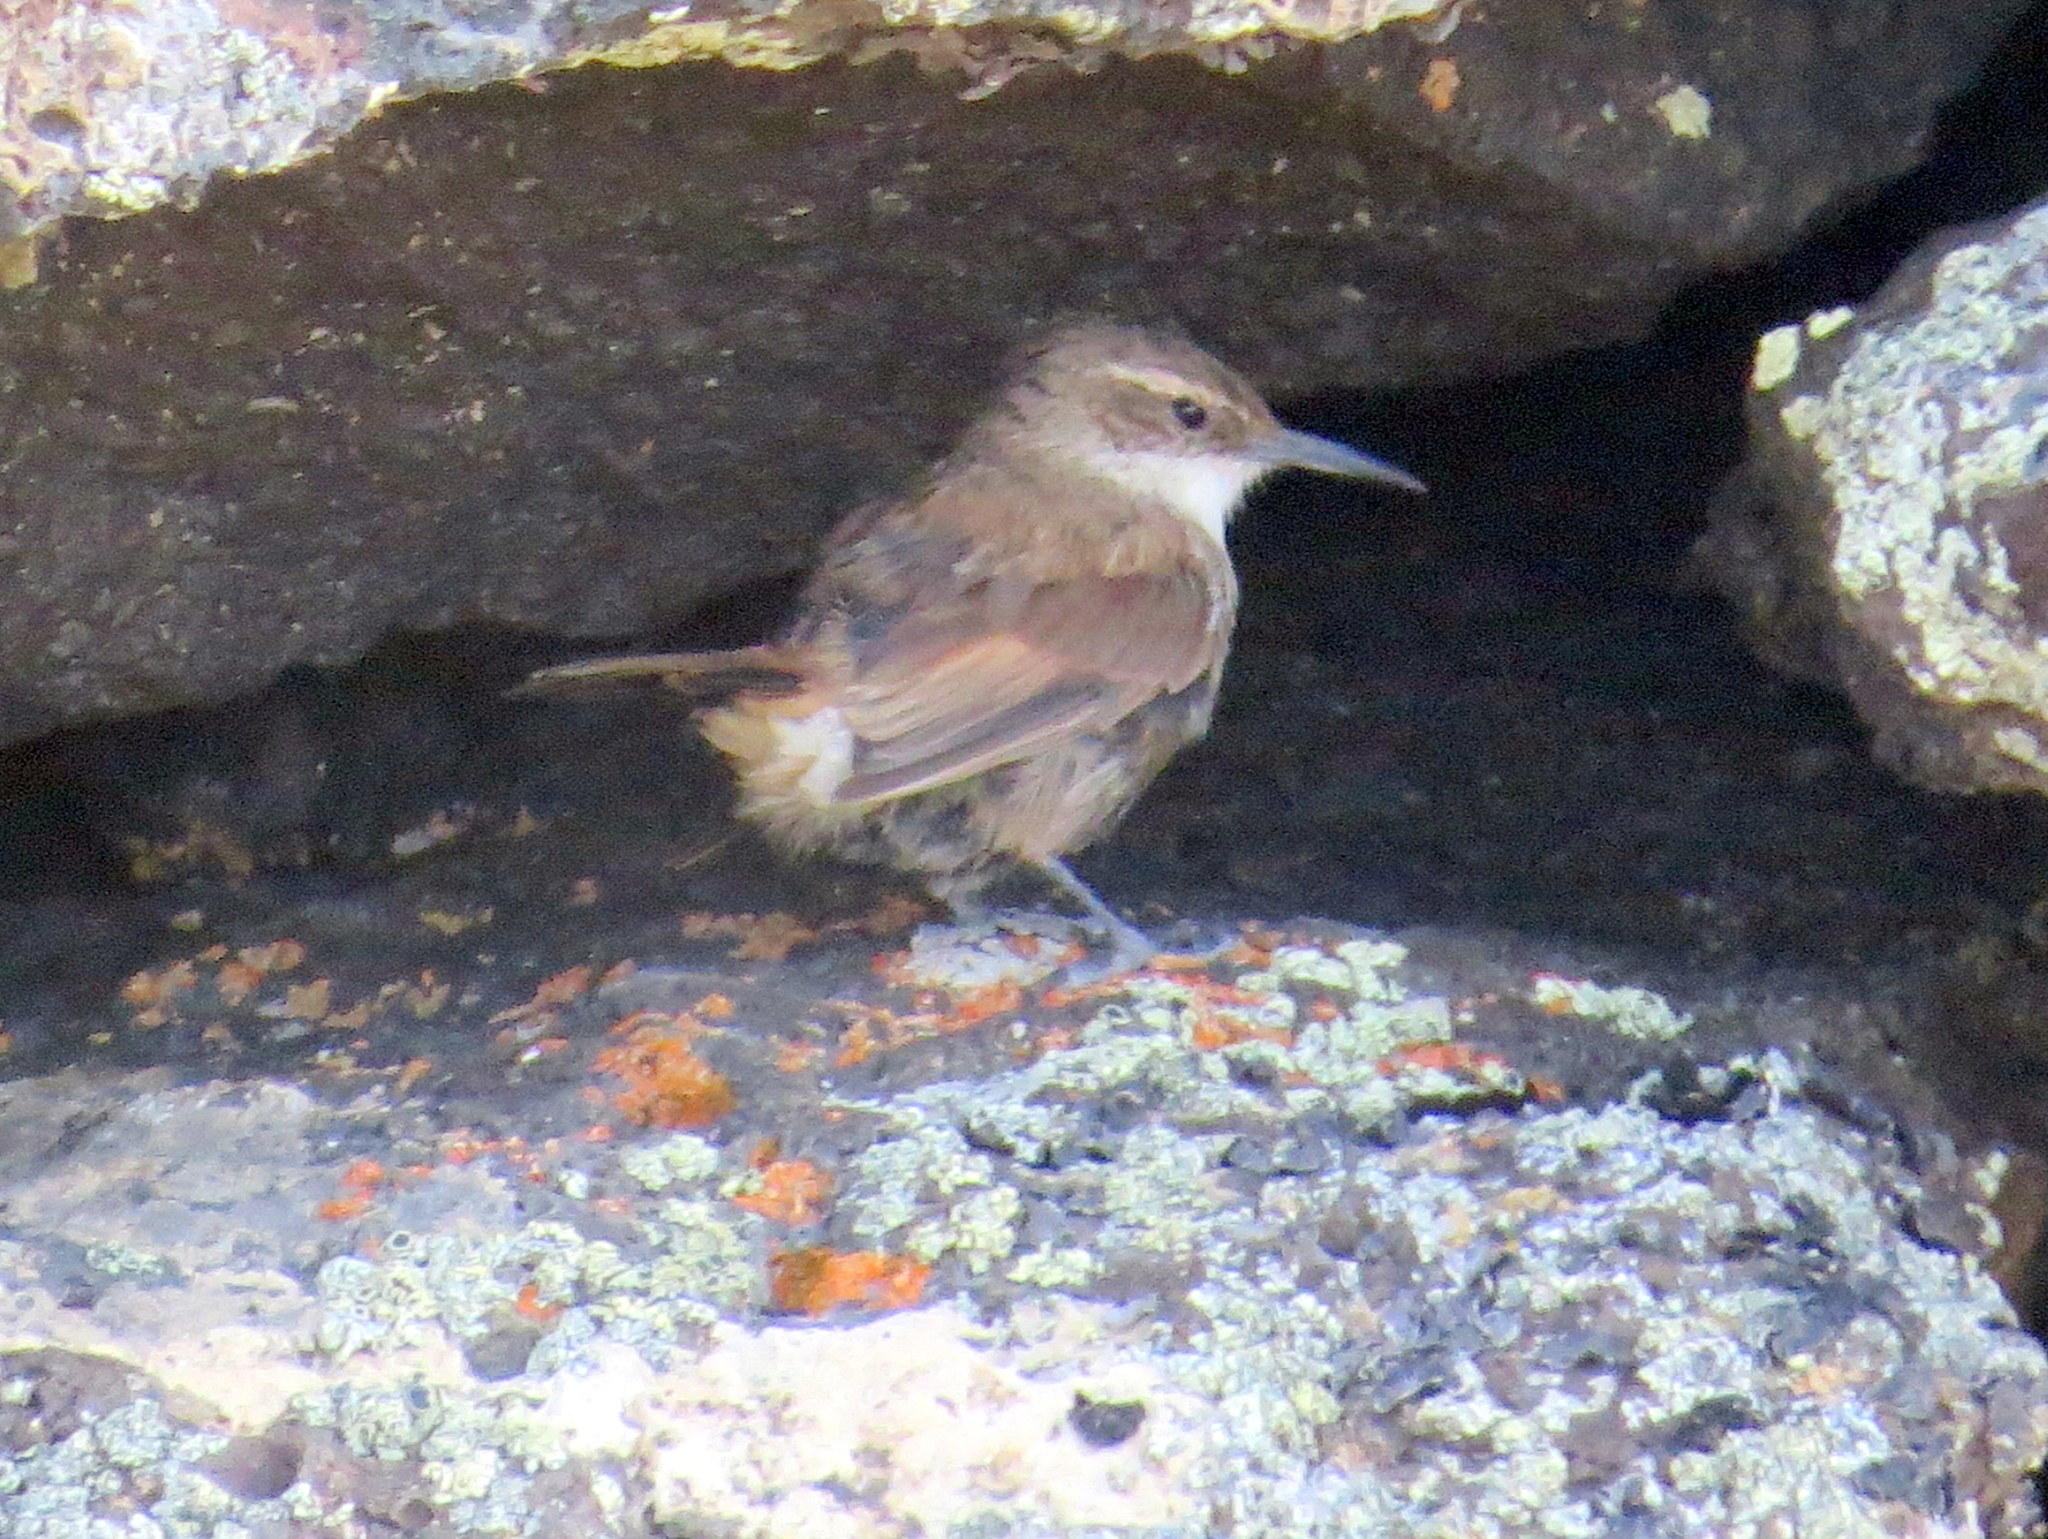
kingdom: Animalia
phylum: Chordata
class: Aves
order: Passeriformes
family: Furnariidae
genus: Upucerthia
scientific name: Upucerthia ruficaudus
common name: Straight-billed earthcreeper
